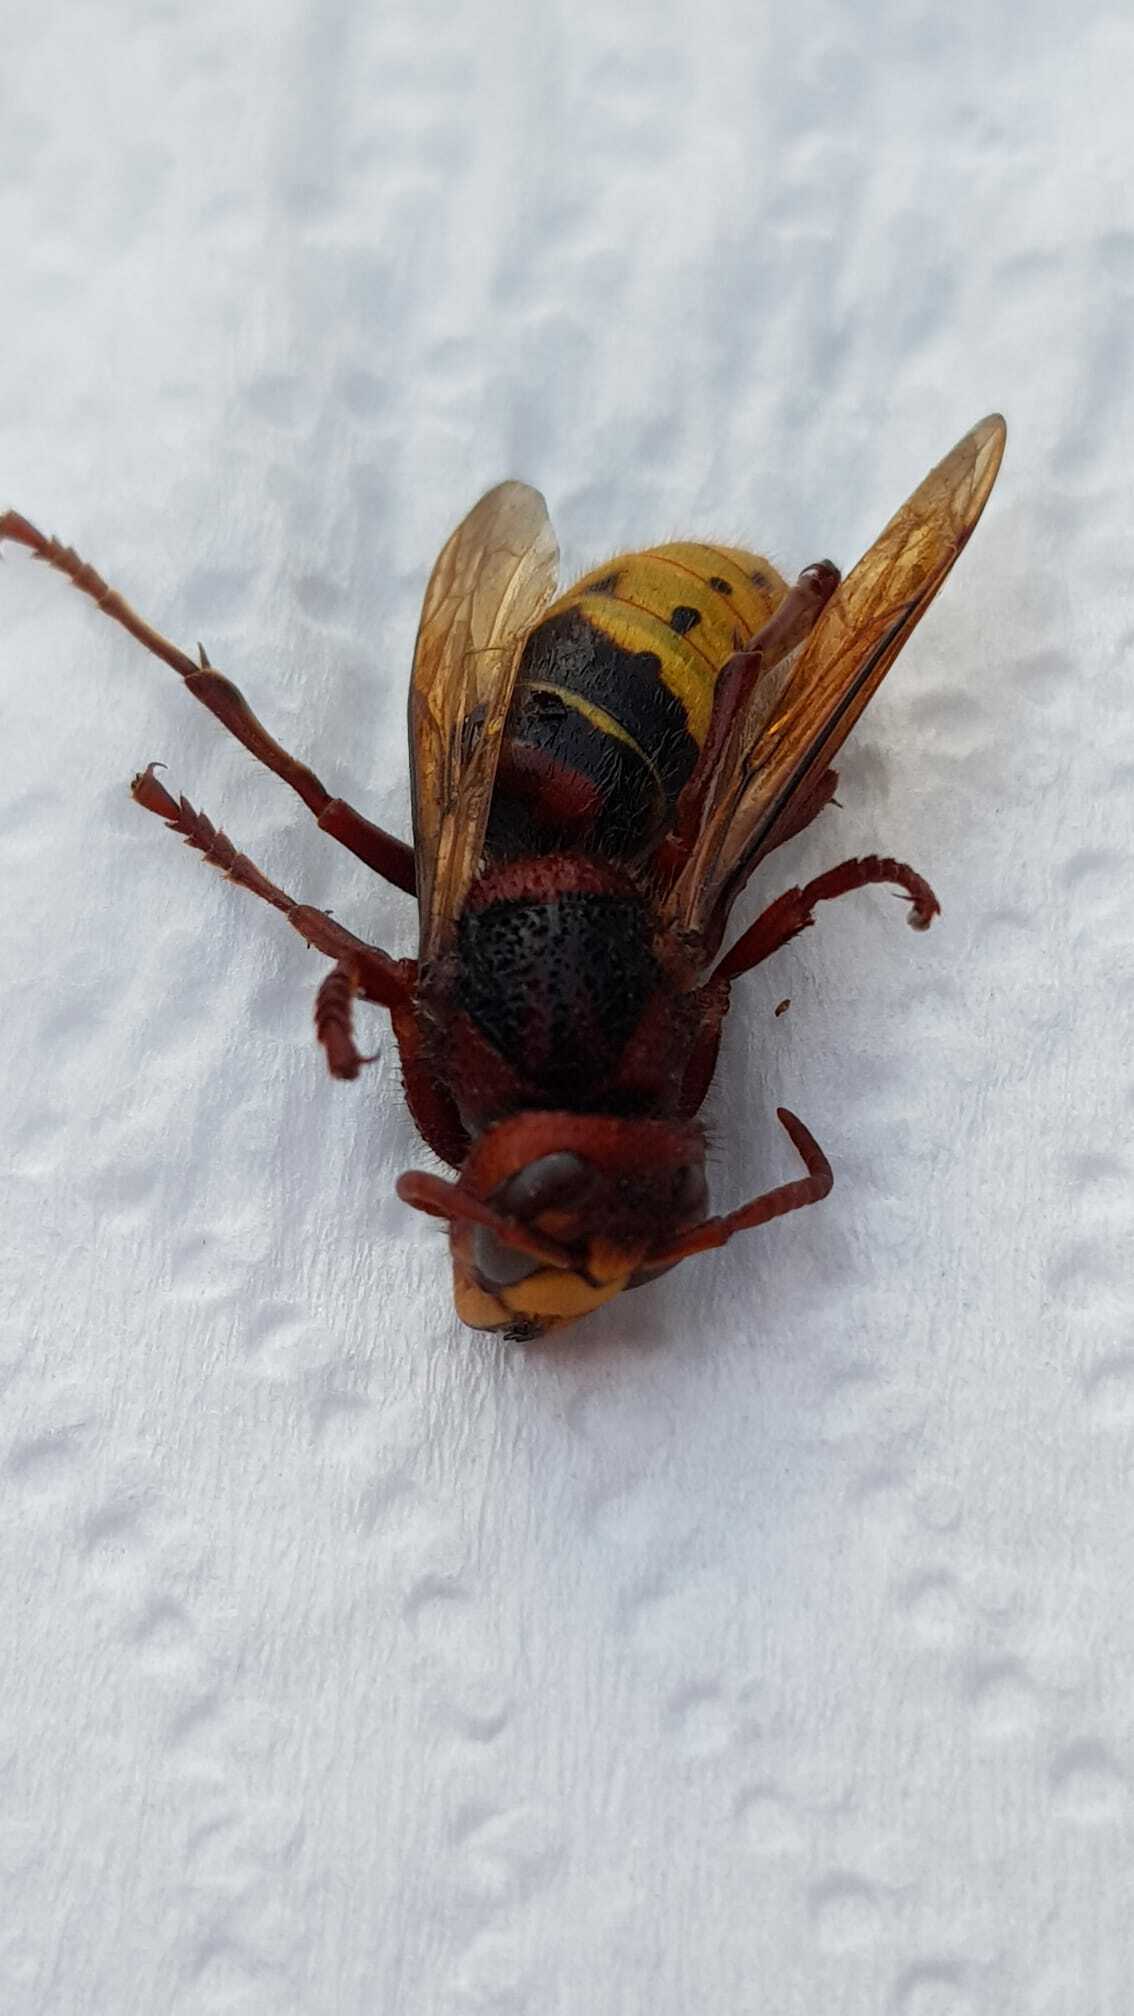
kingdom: Animalia
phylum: Arthropoda
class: Insecta
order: Hymenoptera
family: Vespidae
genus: Vespa
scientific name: Vespa crabro
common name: Hornet
